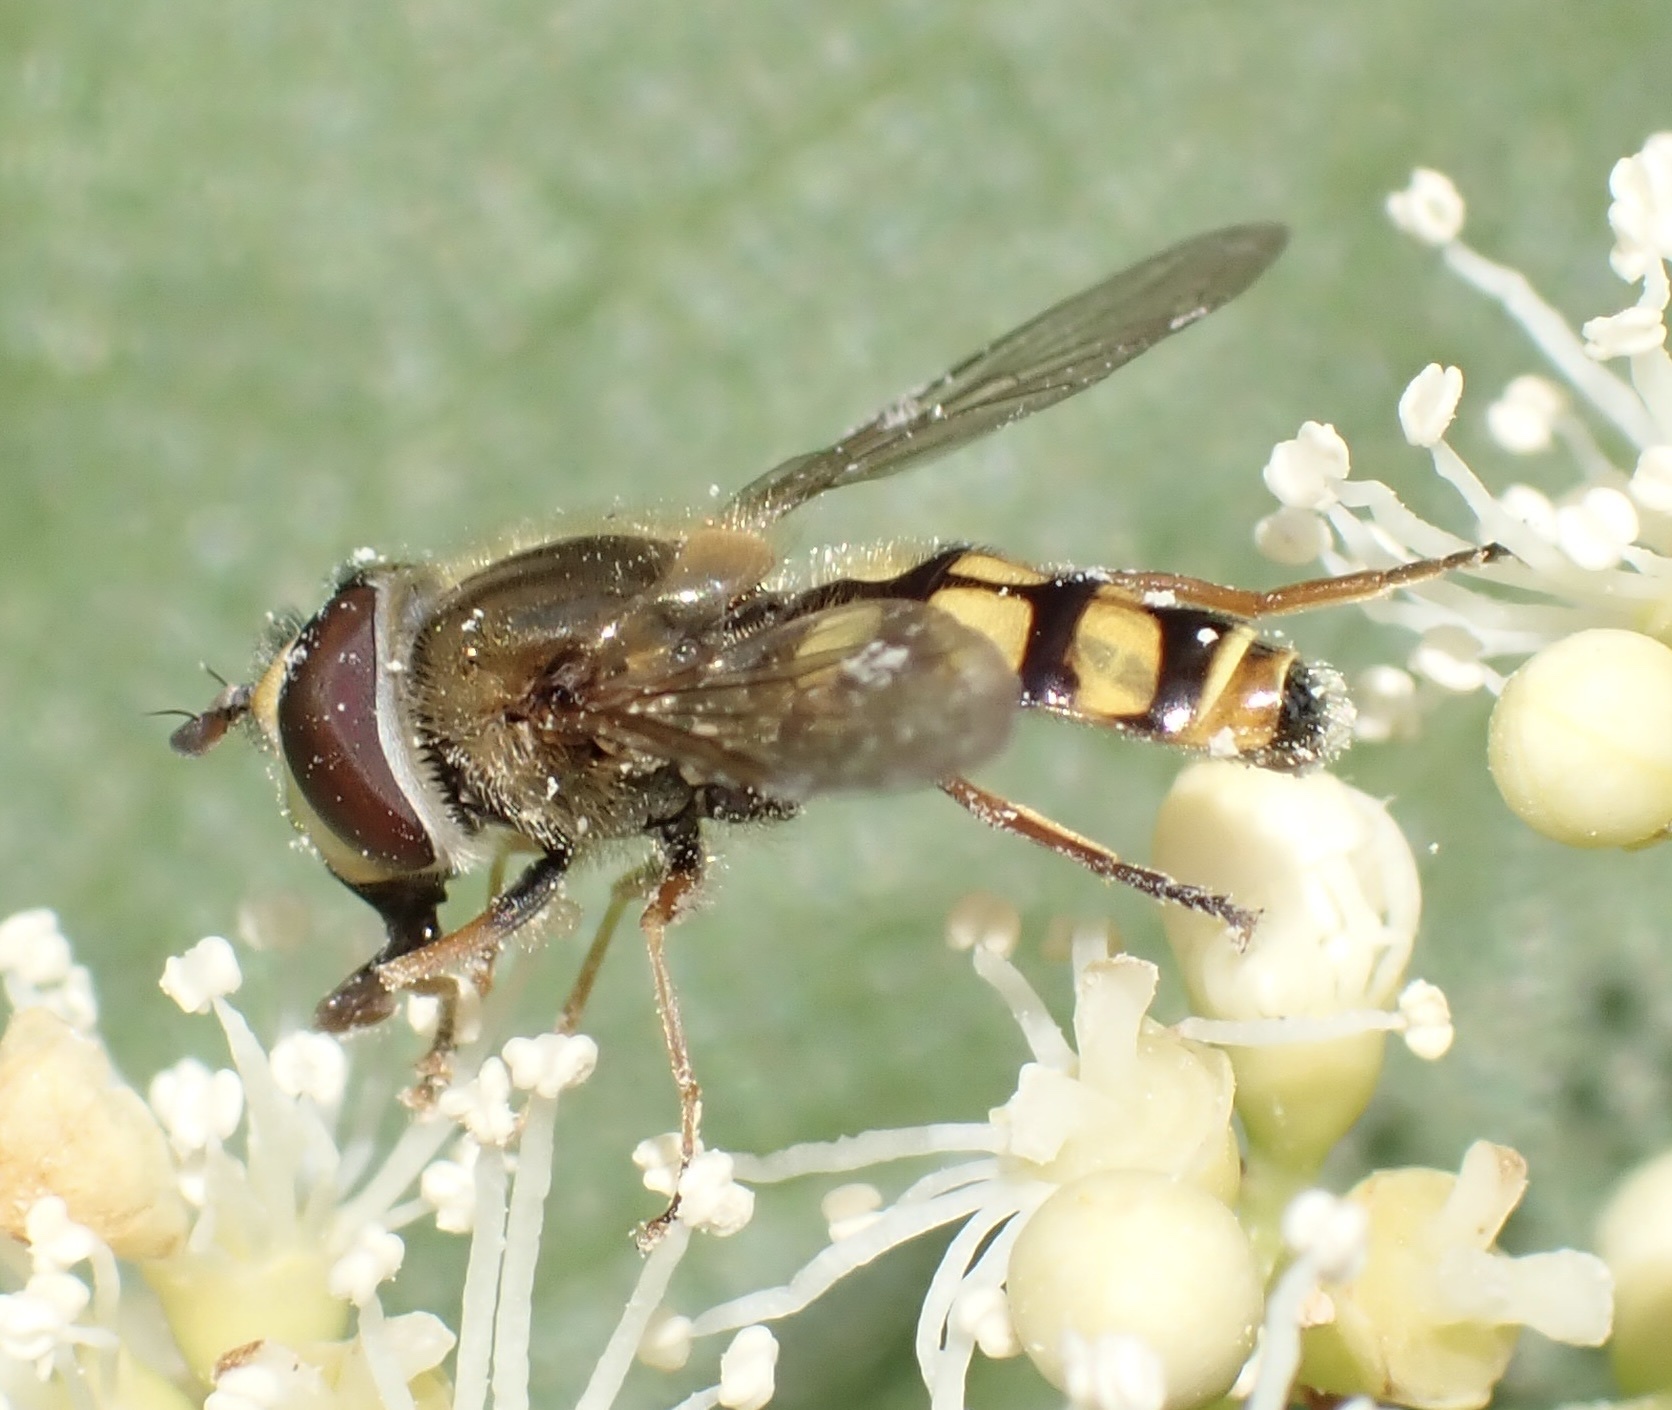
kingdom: Animalia
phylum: Arthropoda
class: Insecta
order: Diptera
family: Syrphidae
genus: Eupeodes
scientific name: Eupeodes corollae
